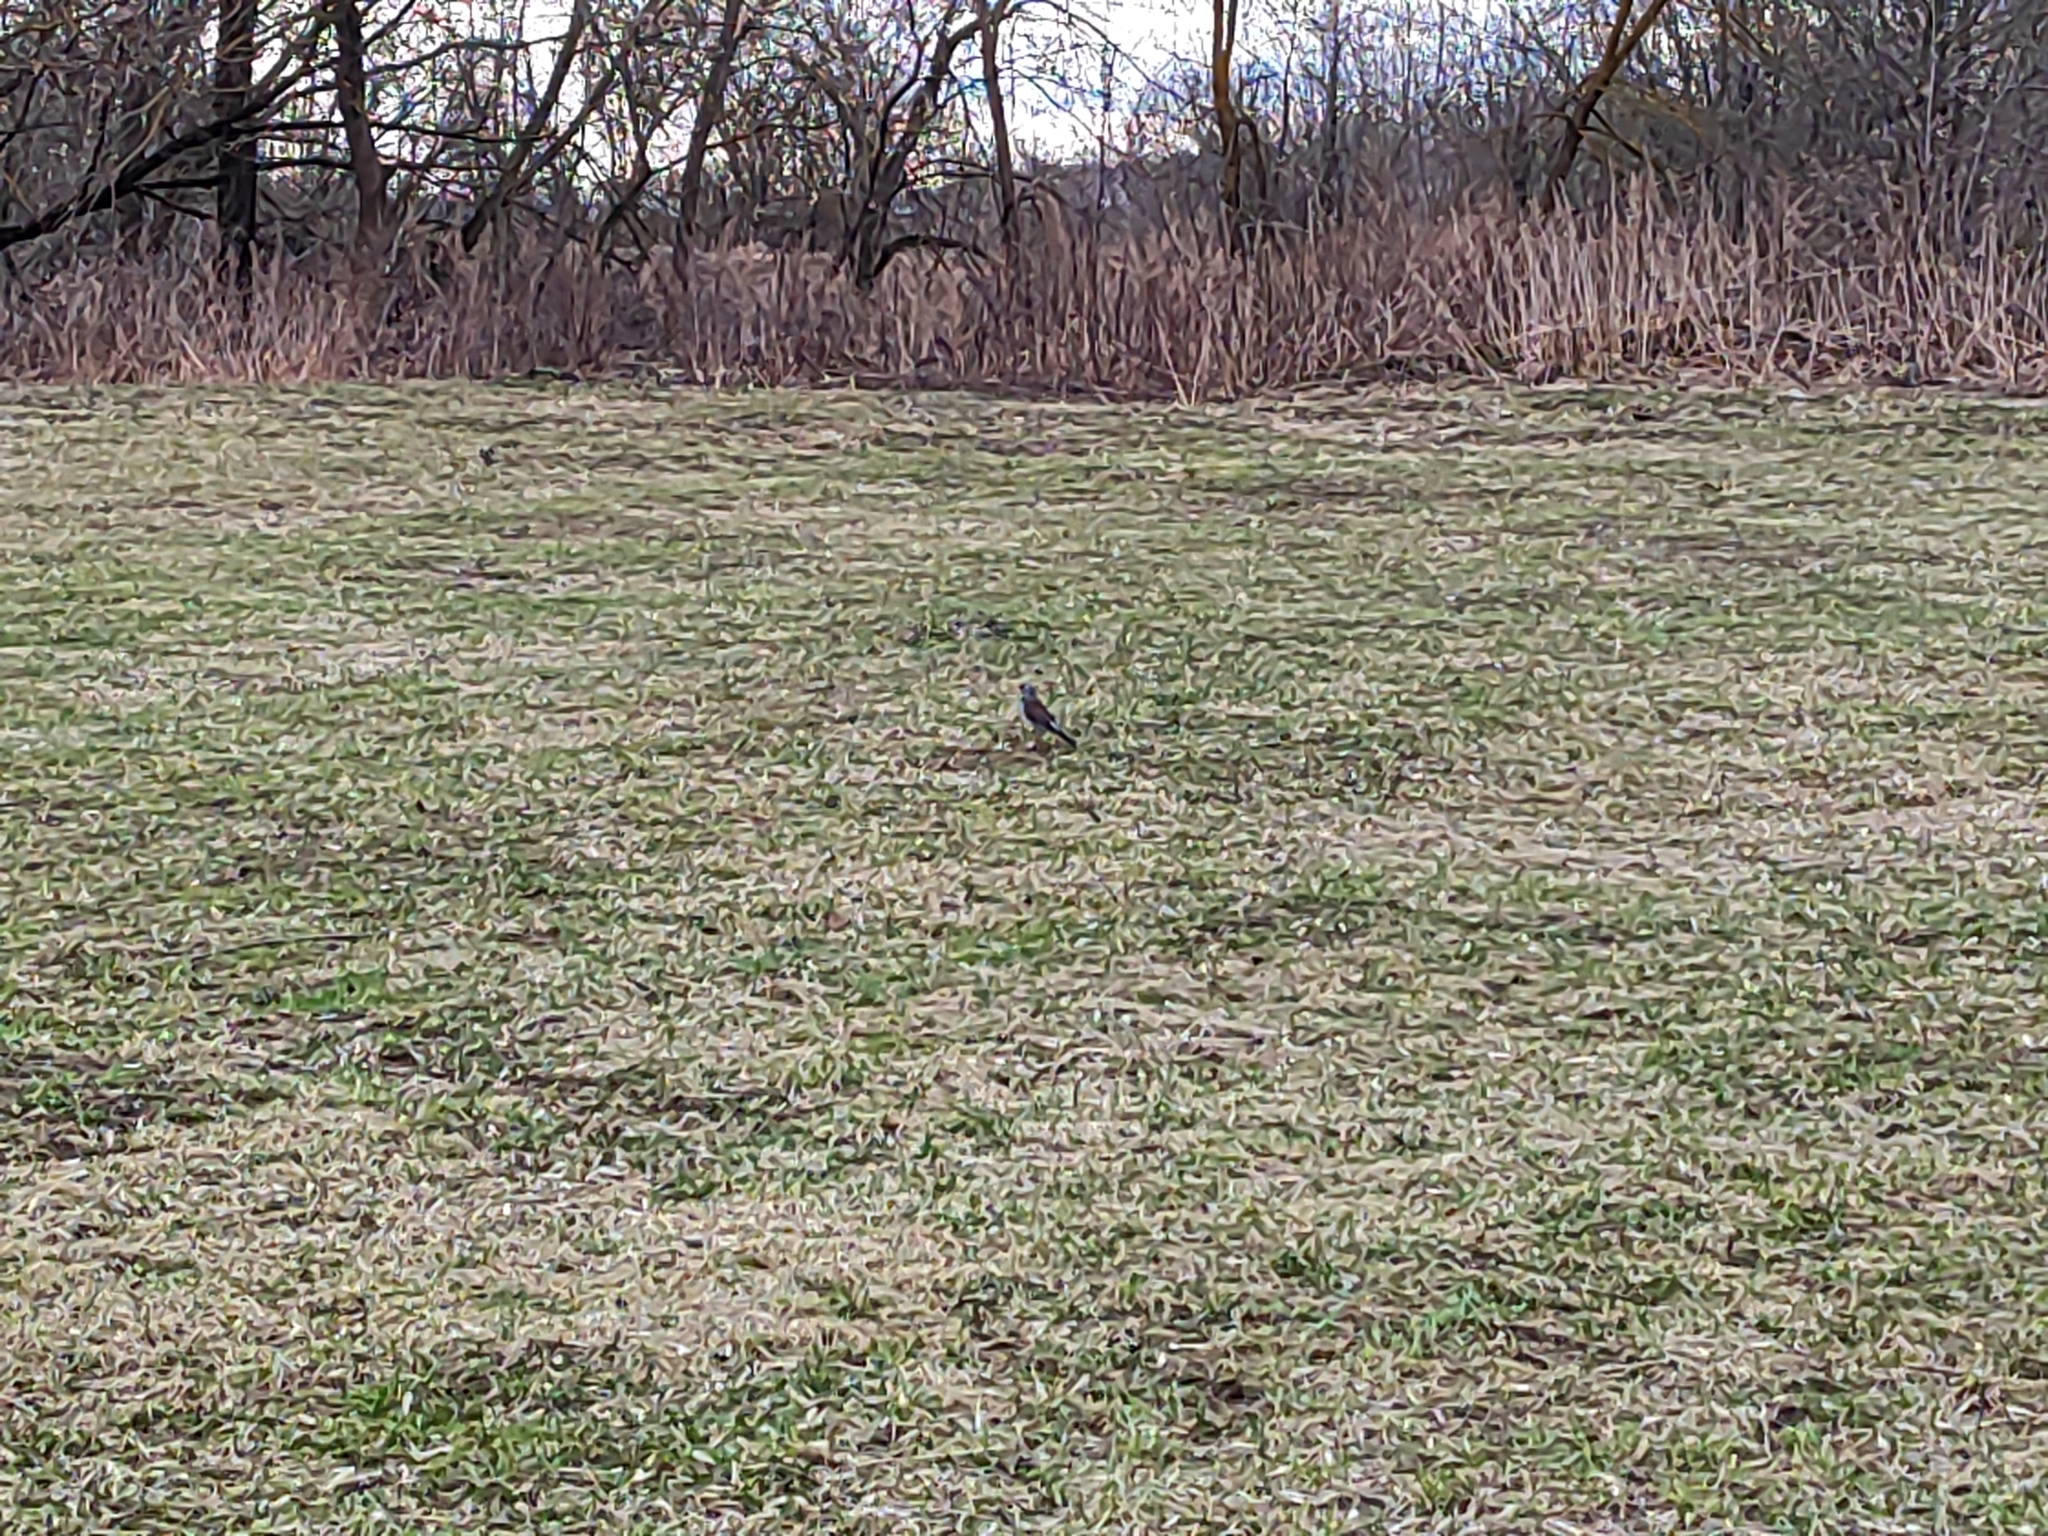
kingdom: Animalia
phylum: Chordata
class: Aves
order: Passeriformes
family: Turdidae
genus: Turdus
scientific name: Turdus pilaris
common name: Fieldfare
